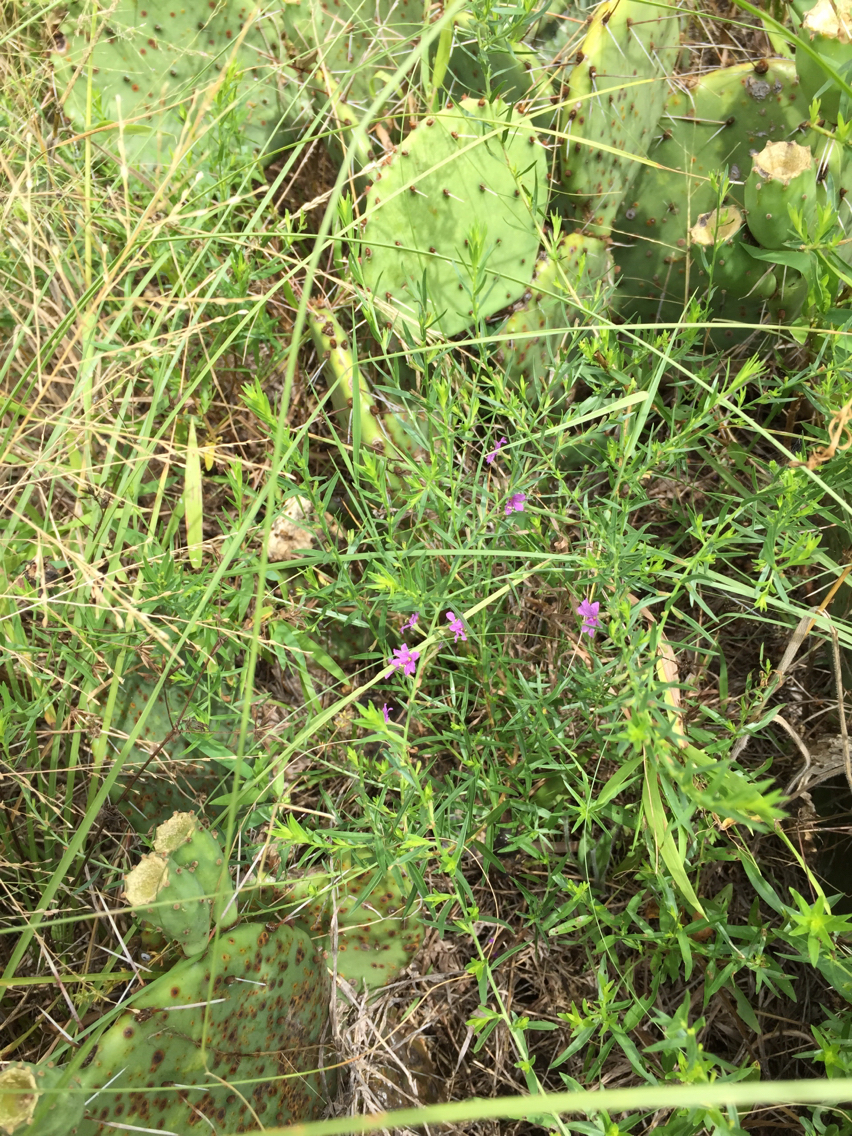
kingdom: Plantae
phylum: Tracheophyta
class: Magnoliopsida
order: Myrtales
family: Lythraceae
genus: Lythrum
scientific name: Lythrum alatum
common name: Winged loosestrife
